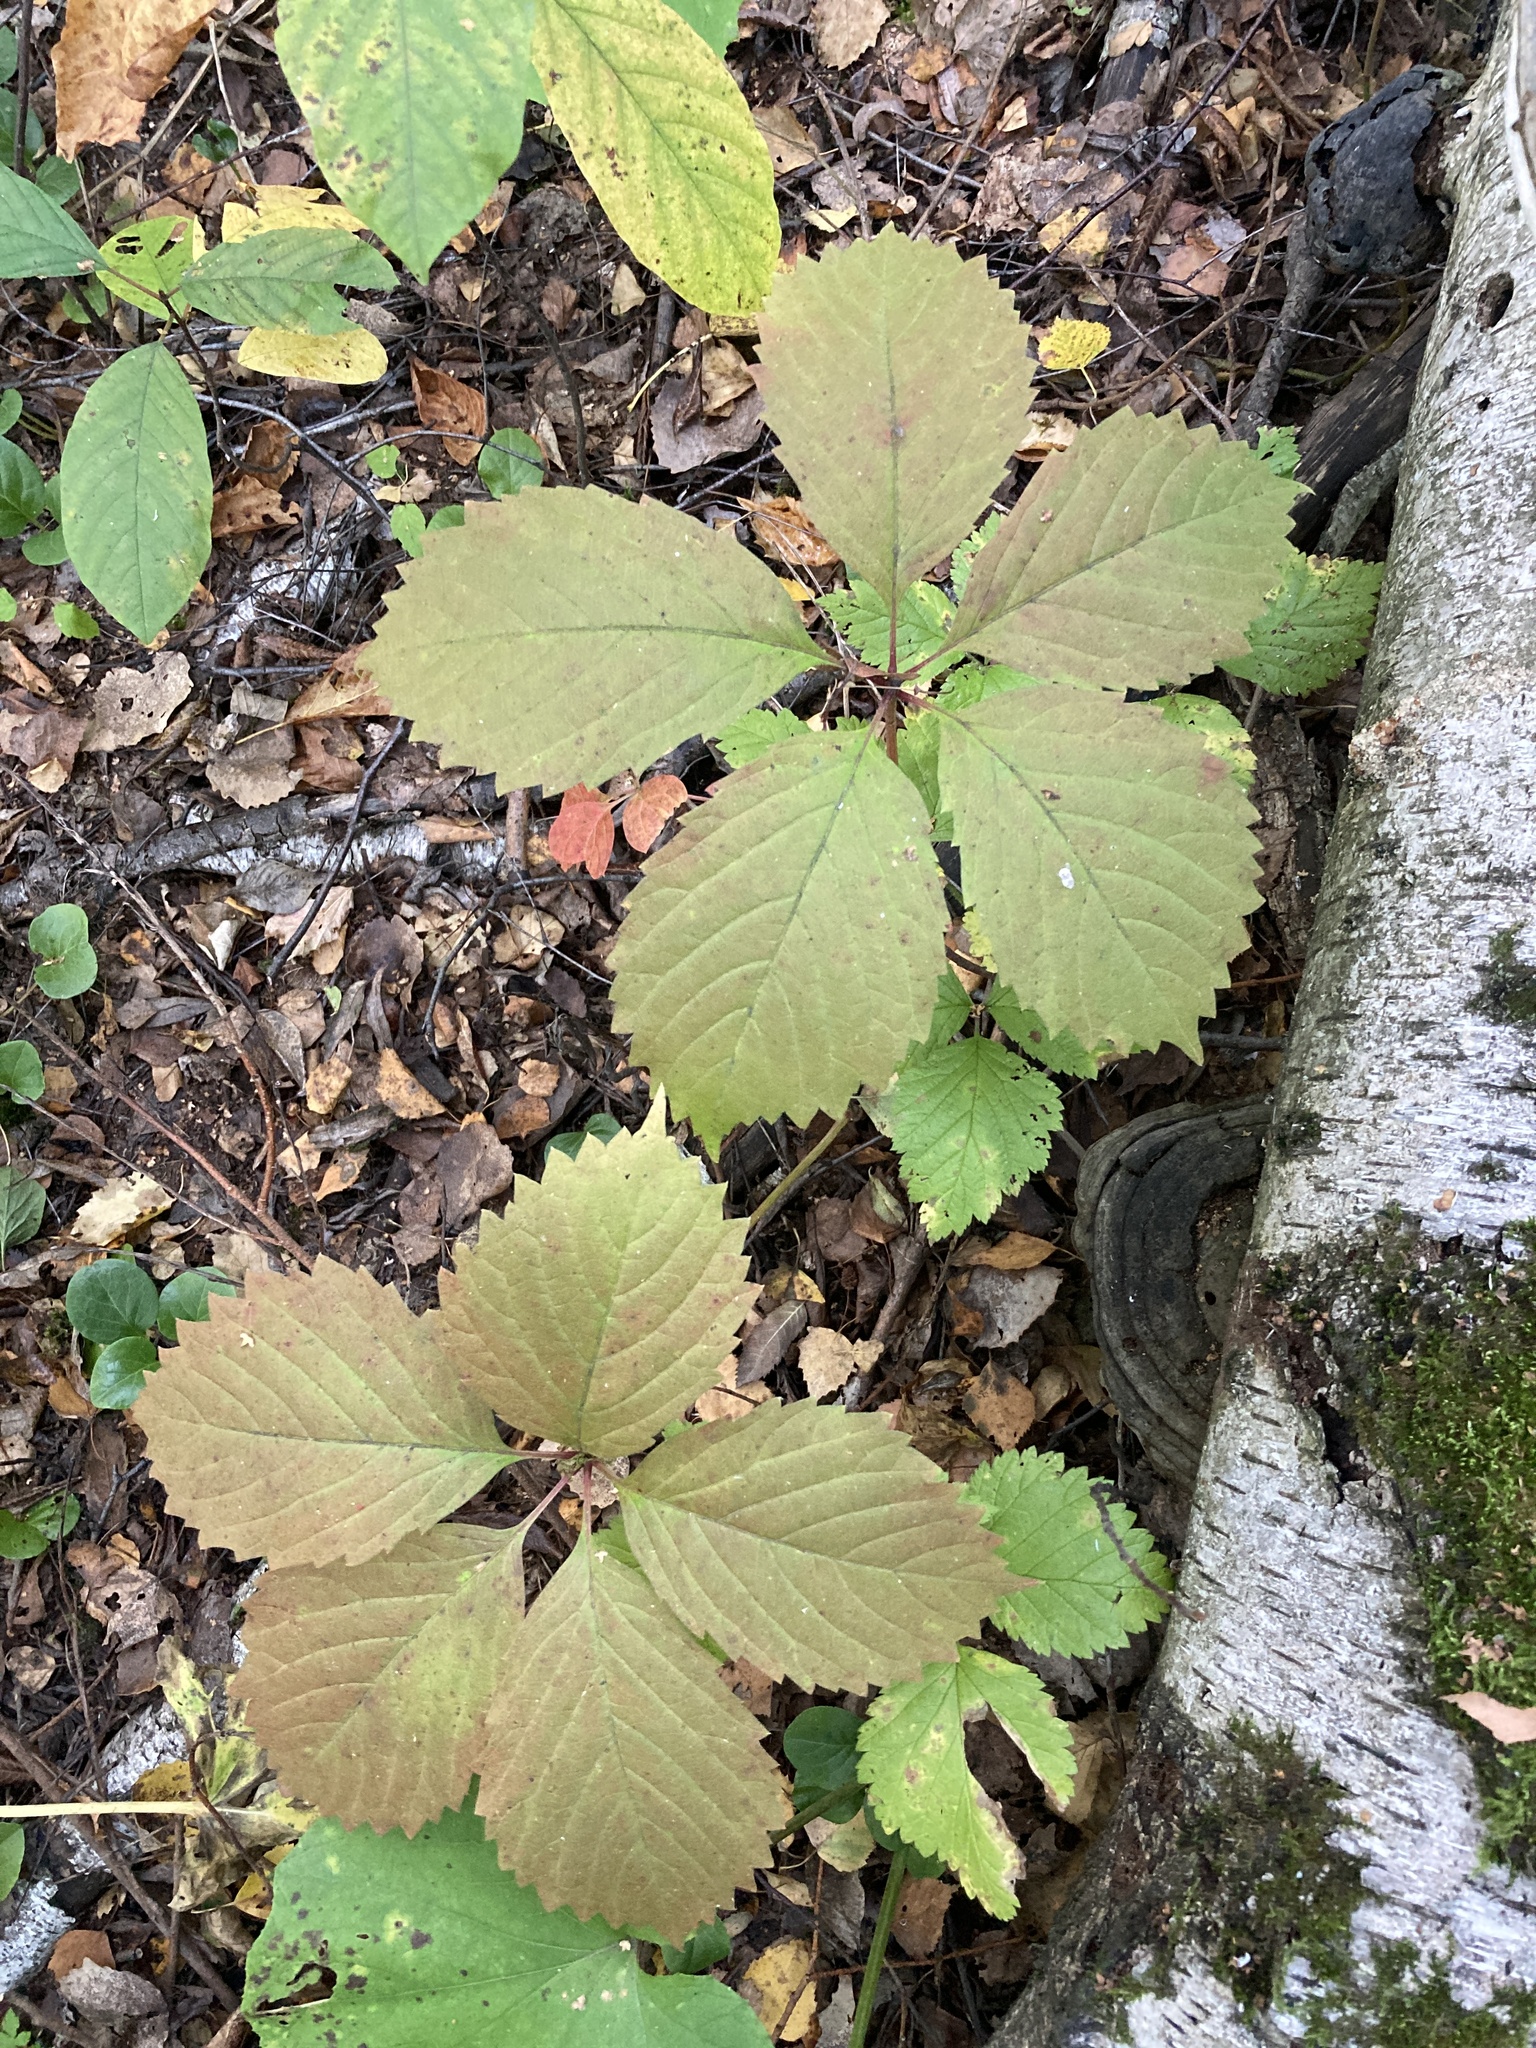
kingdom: Plantae
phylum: Tracheophyta
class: Magnoliopsida
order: Vitales
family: Vitaceae
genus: Parthenocissus
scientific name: Parthenocissus inserta
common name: False virginia-creeper
